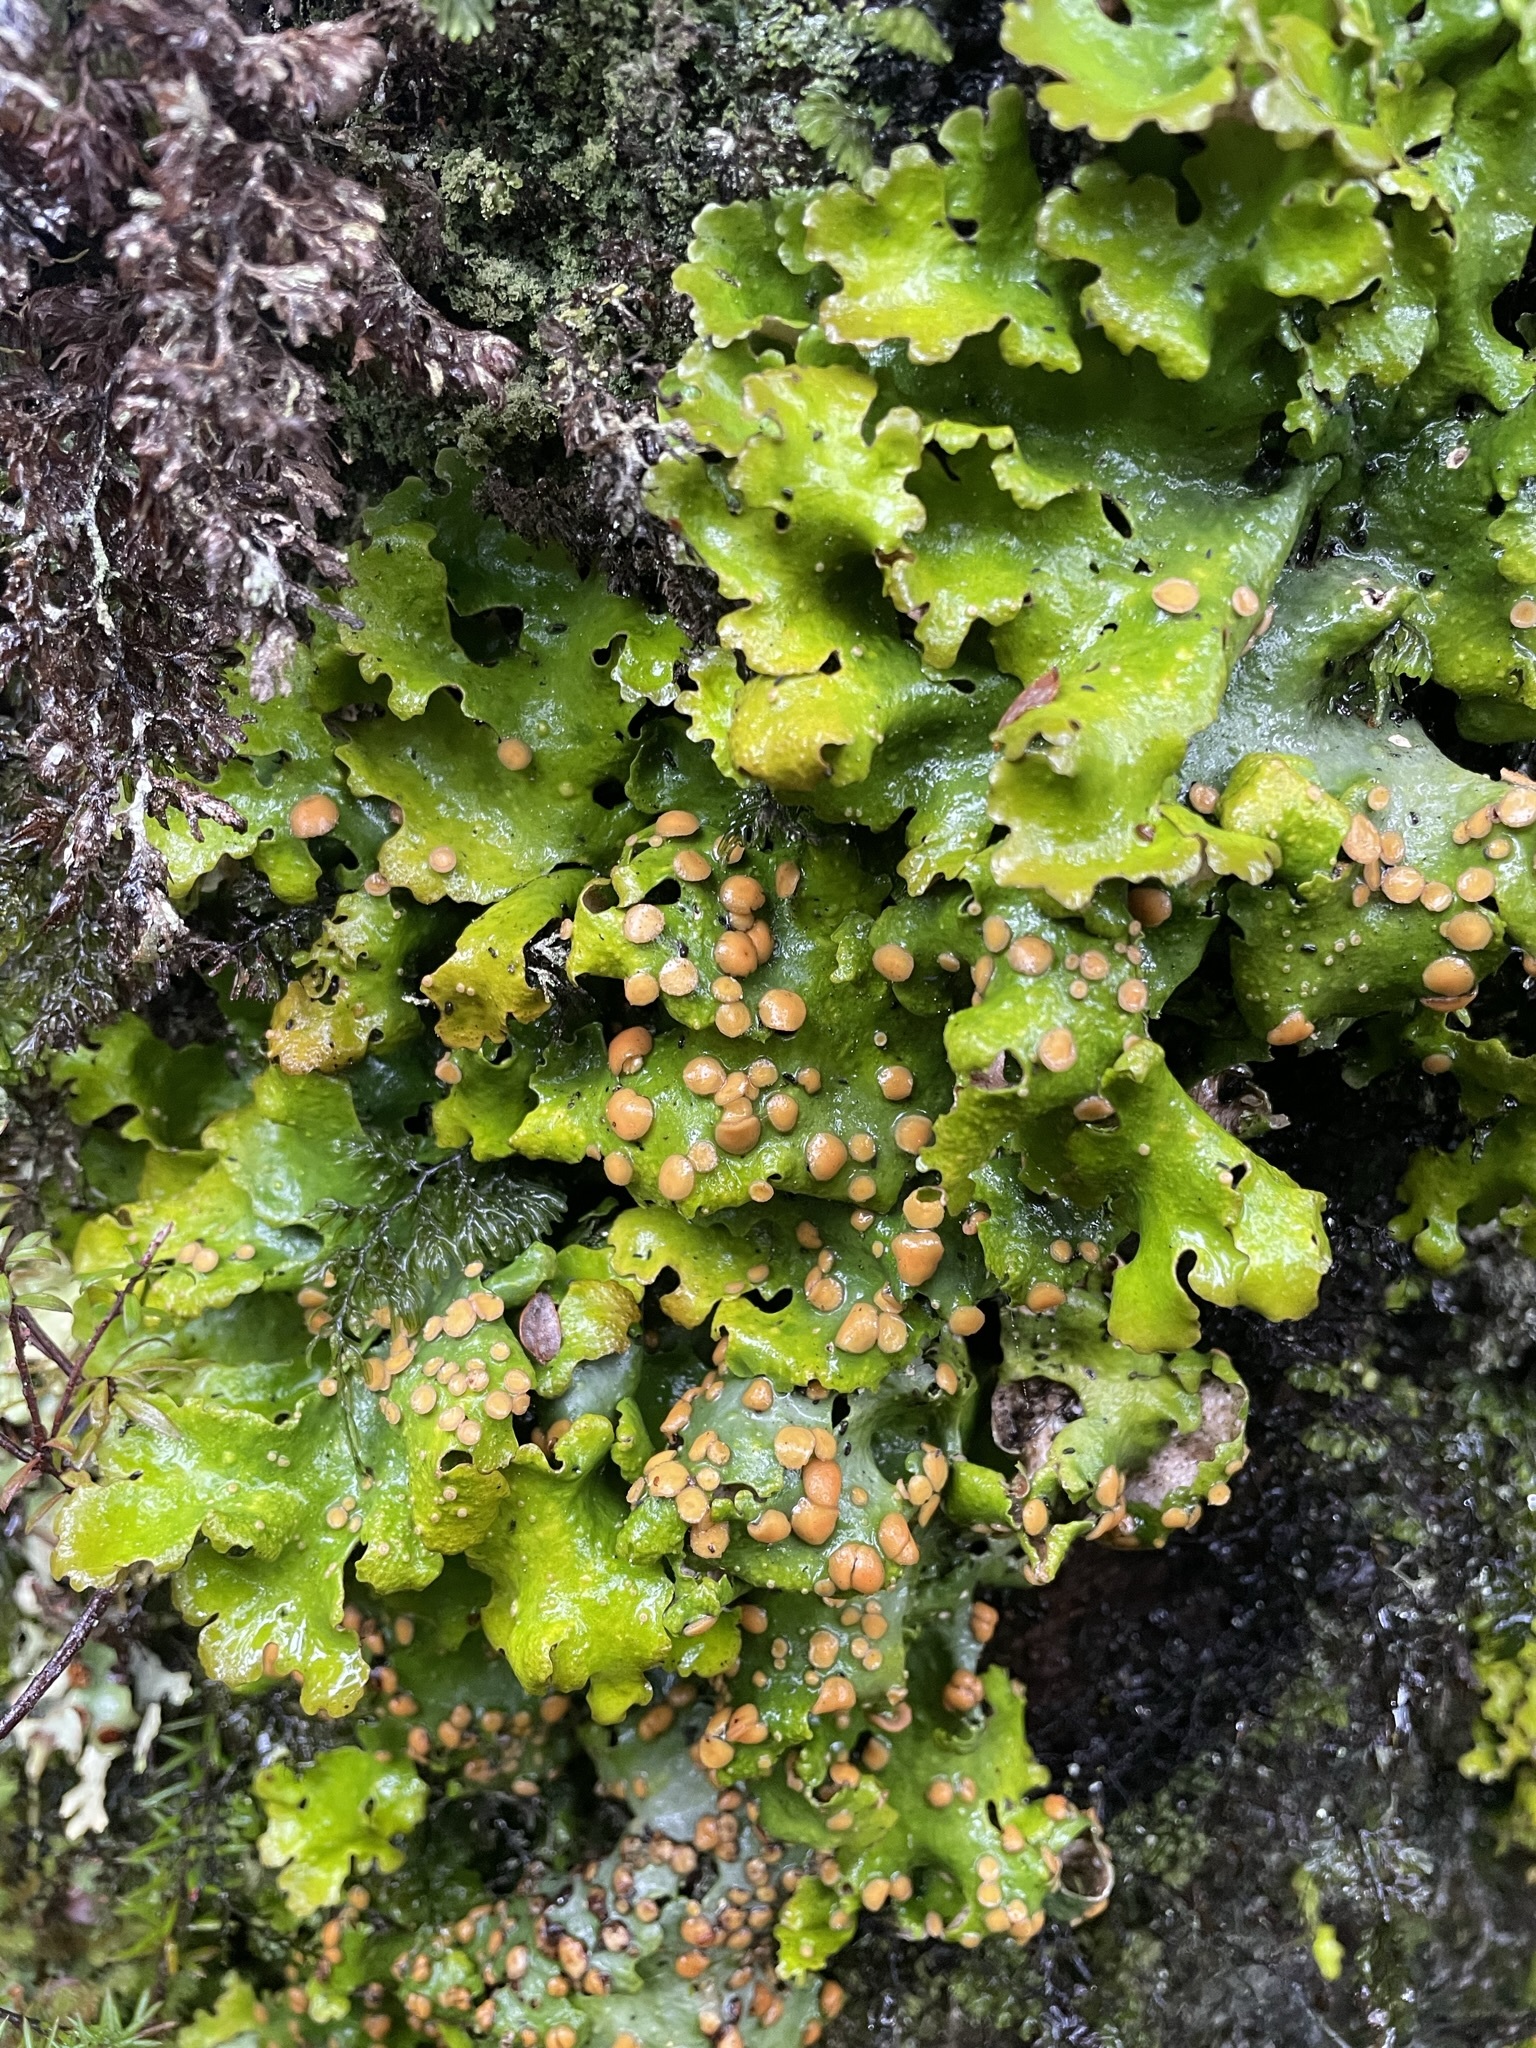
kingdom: Fungi
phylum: Ascomycota
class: Lecanoromycetes
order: Peltigerales
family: Lobariaceae
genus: Sticta
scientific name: Sticta subcaperata
